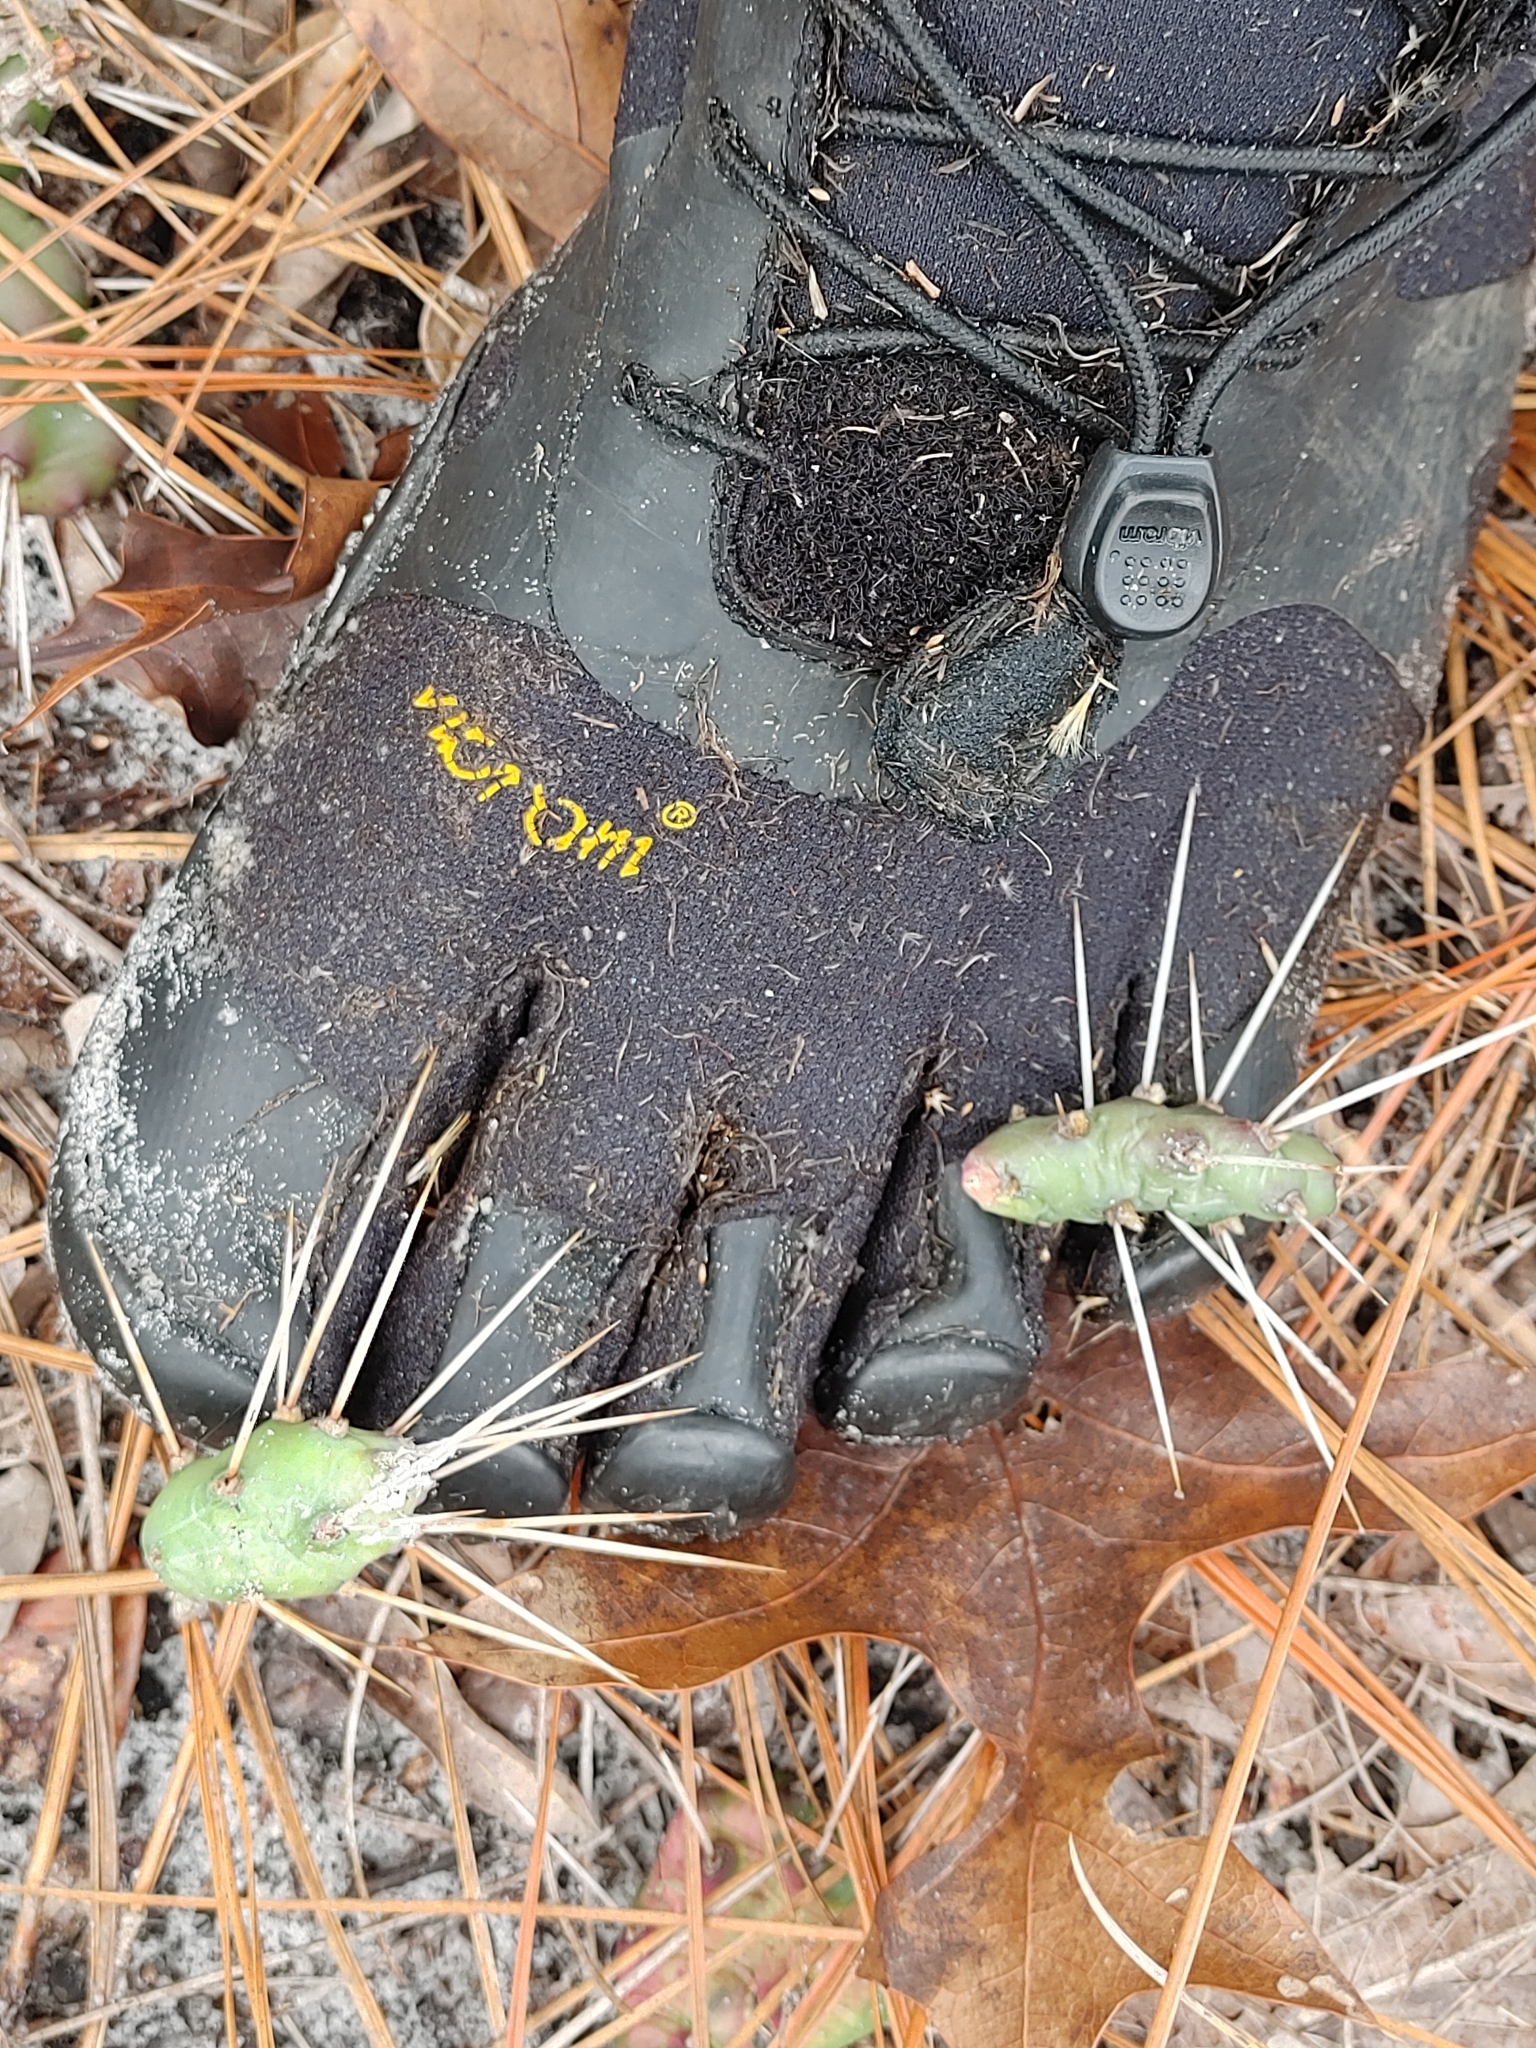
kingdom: Plantae
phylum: Tracheophyta
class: Magnoliopsida
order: Caryophyllales
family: Cactaceae
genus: Opuntia
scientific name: Opuntia drummondii
